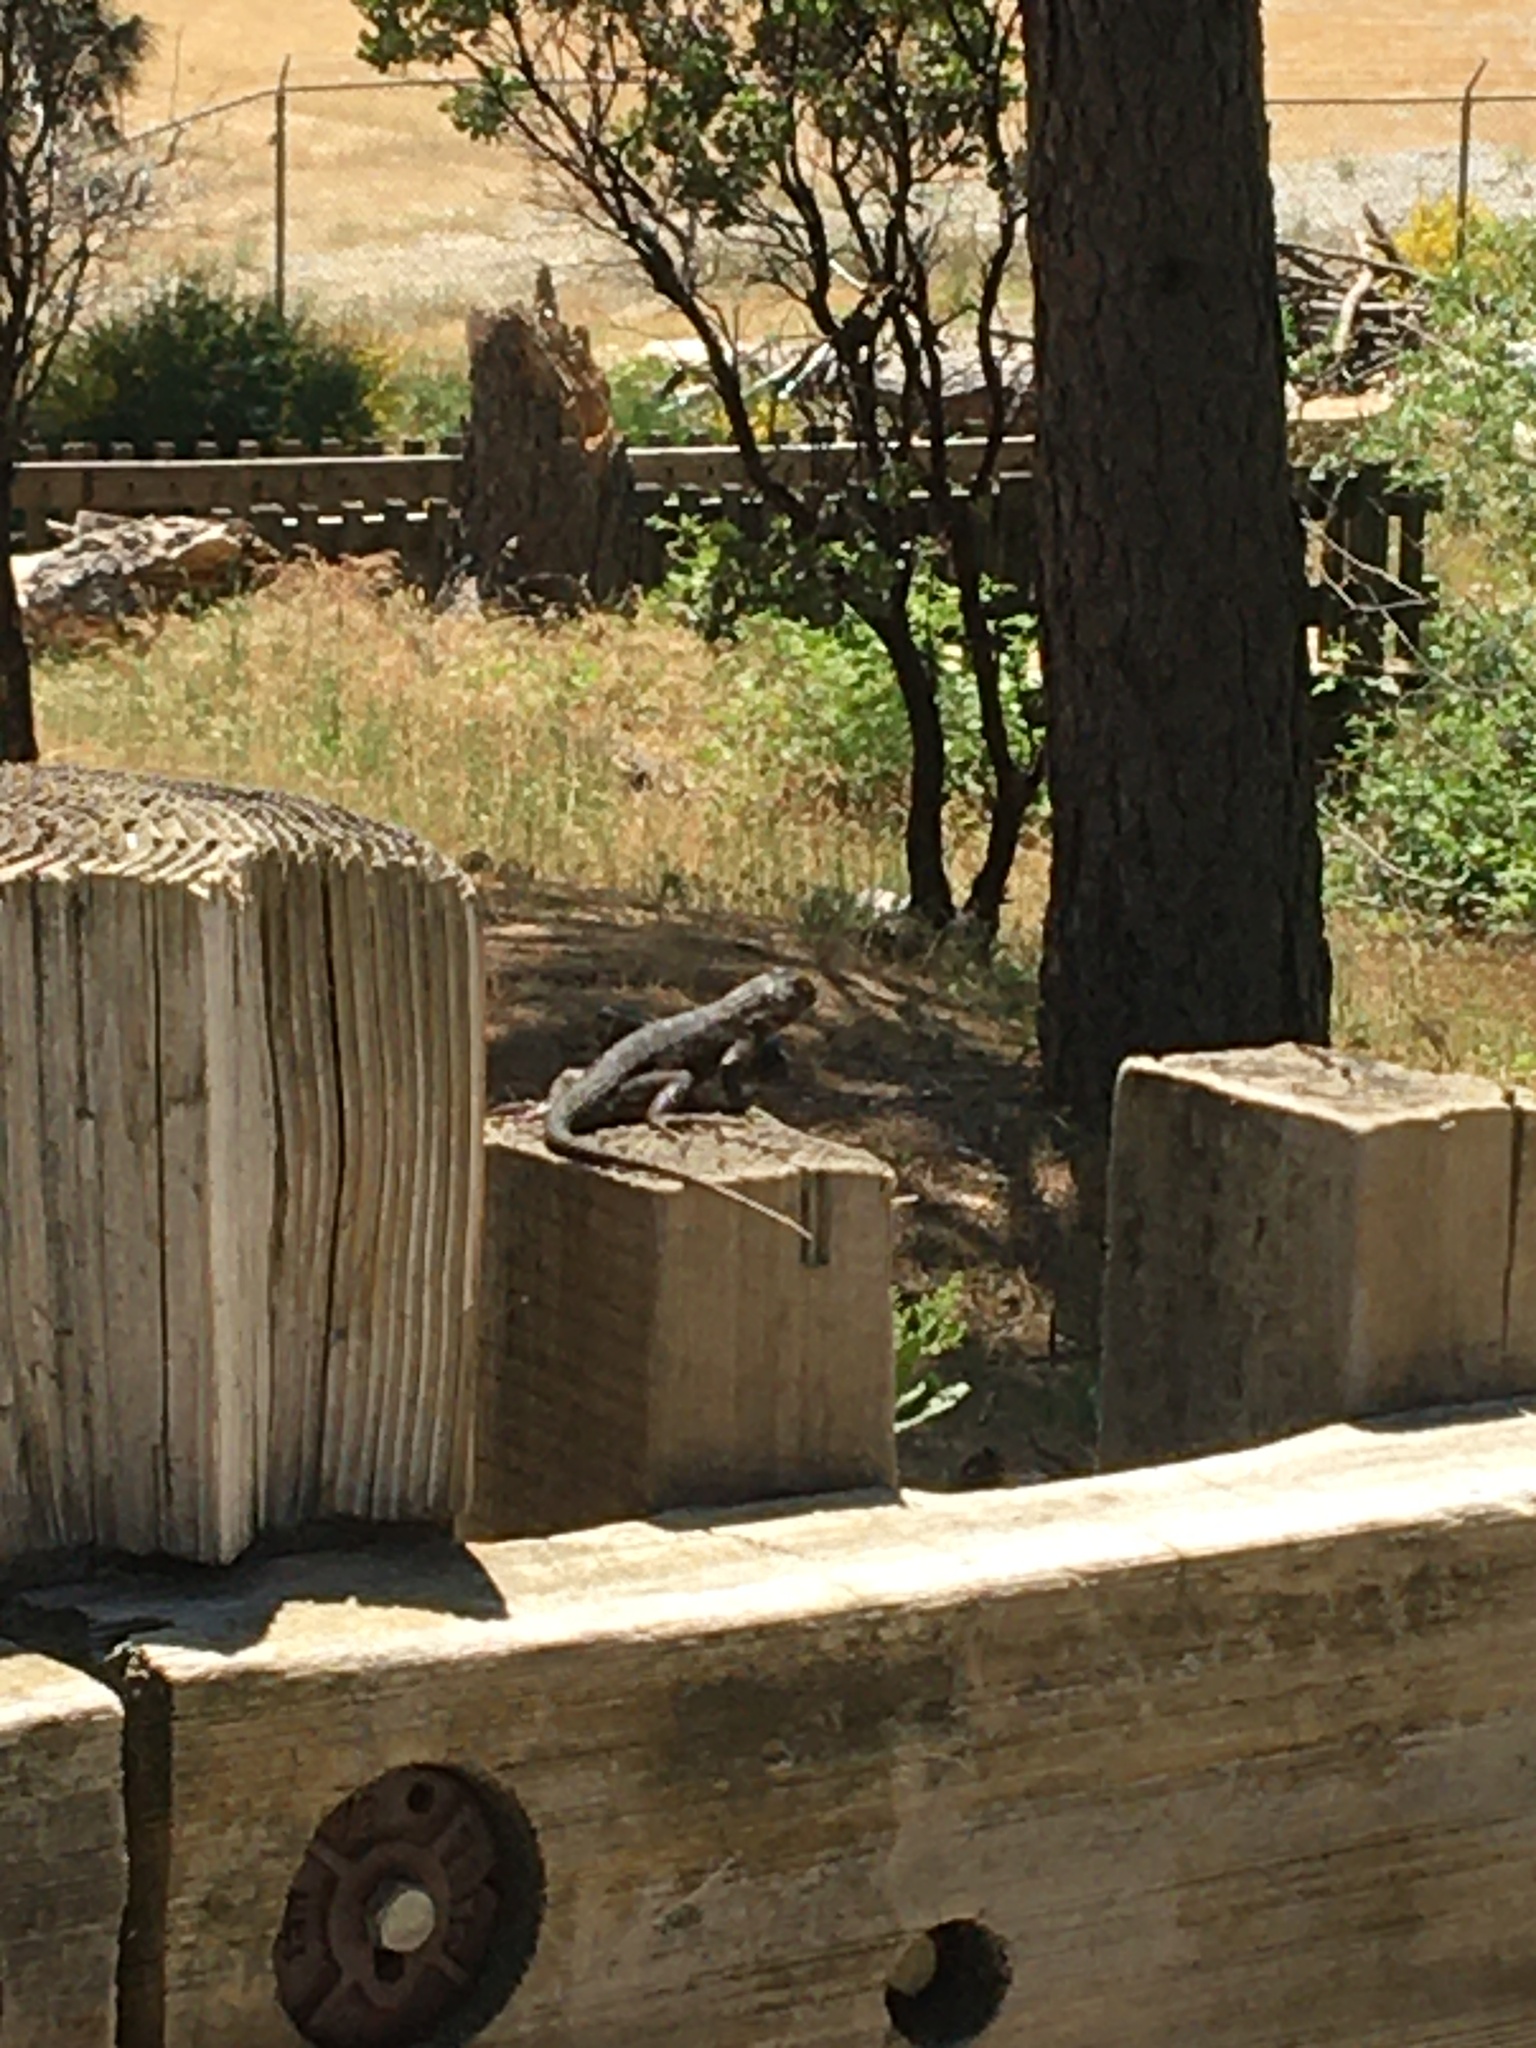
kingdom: Animalia
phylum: Chordata
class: Squamata
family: Phrynosomatidae
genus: Sceloporus
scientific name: Sceloporus occidentalis
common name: Western fence lizard
